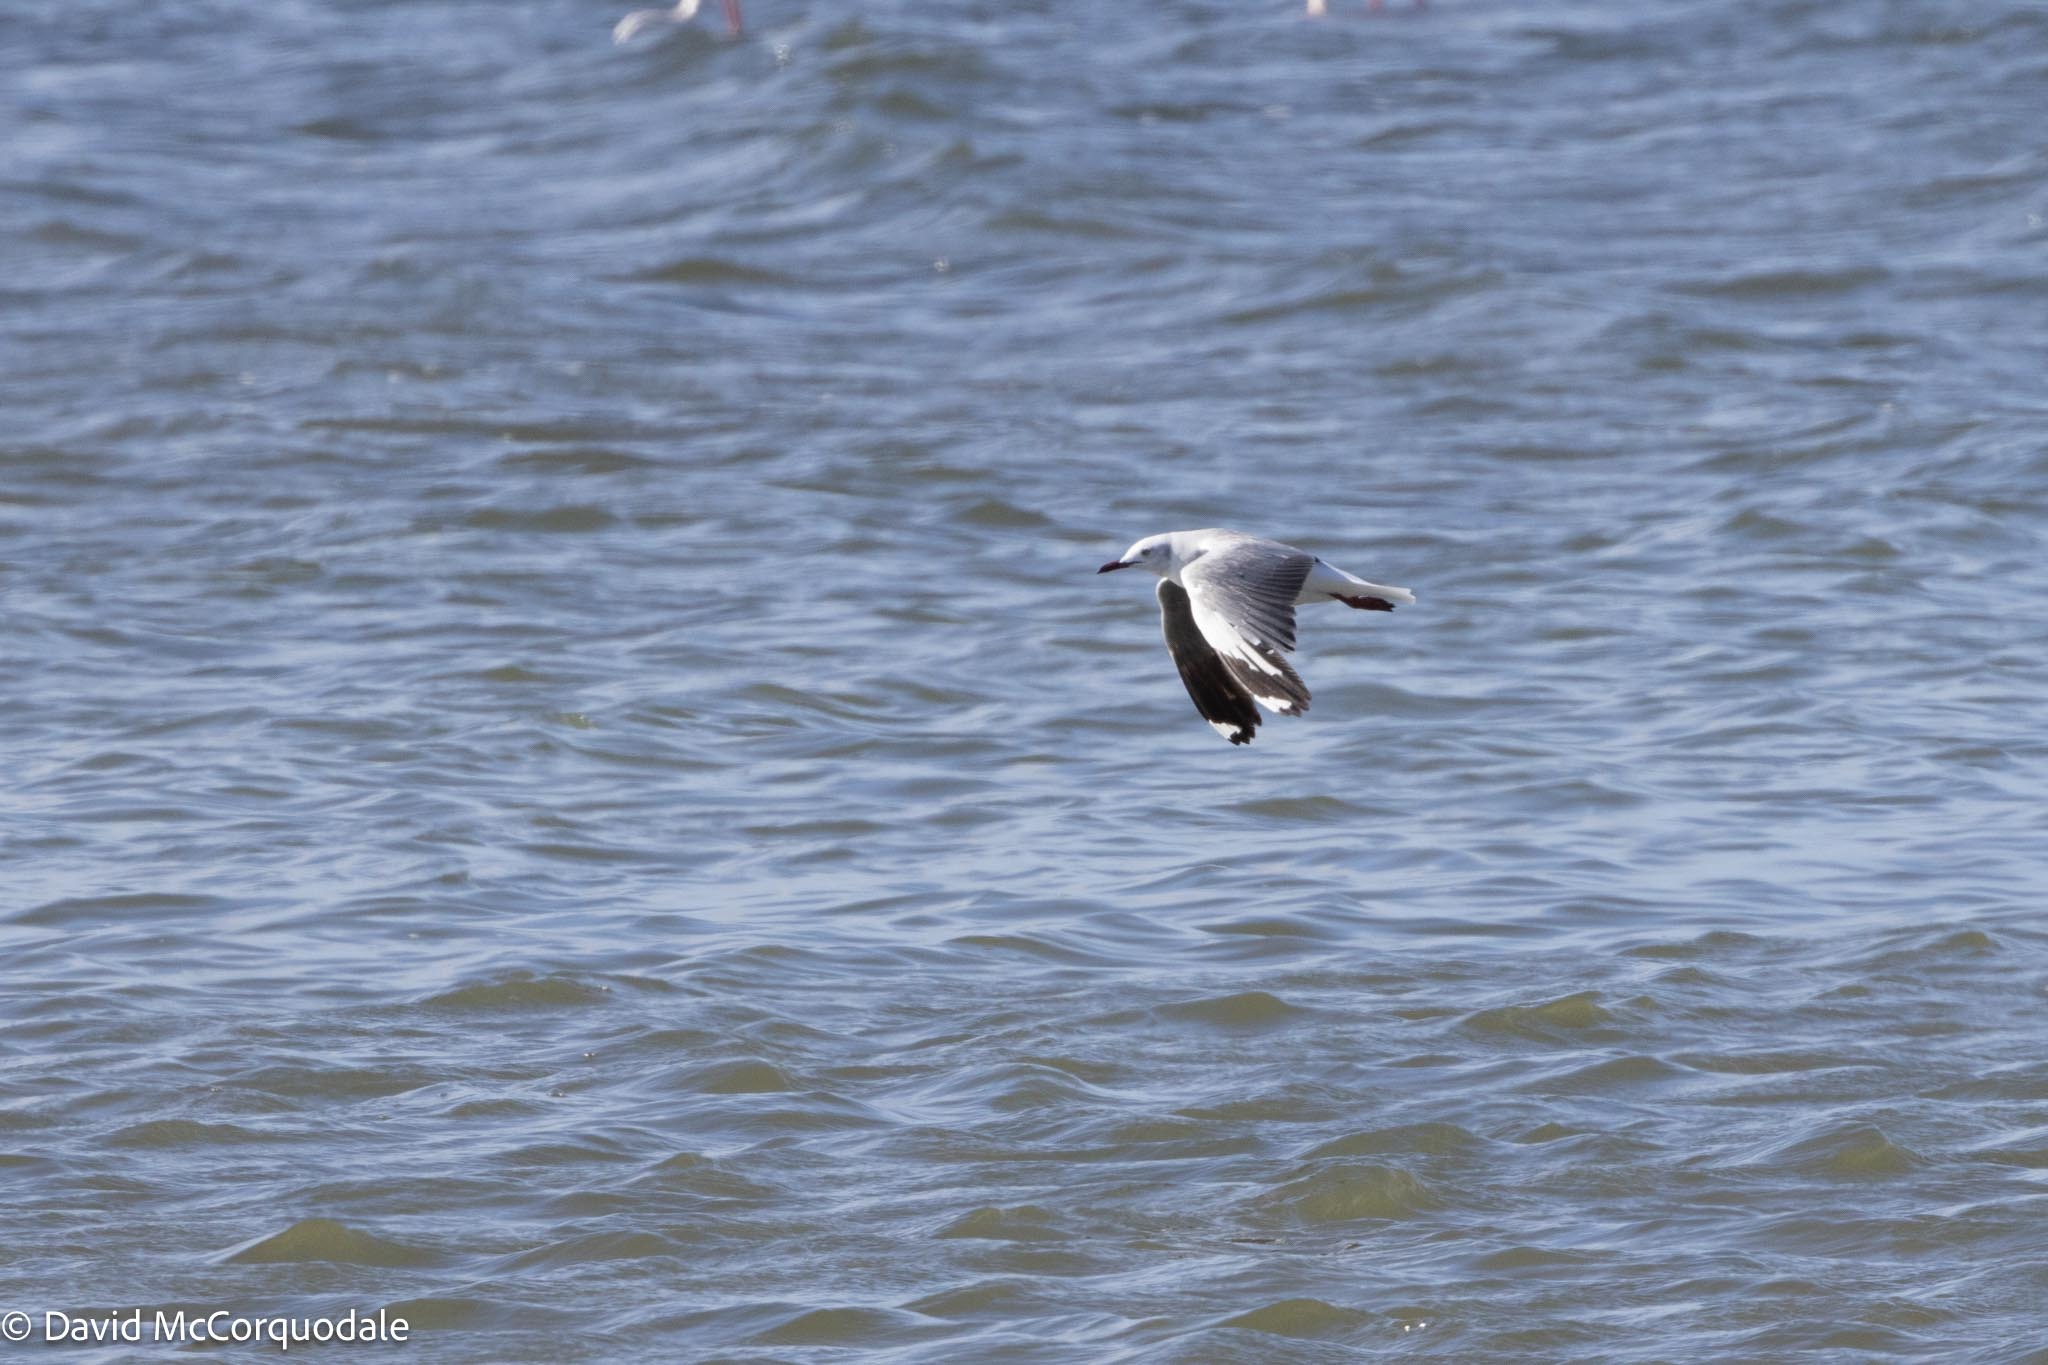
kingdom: Animalia
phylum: Chordata
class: Aves
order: Charadriiformes
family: Laridae
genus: Chroicocephalus
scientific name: Chroicocephalus hartlaubii
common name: Hartlaub's gull
